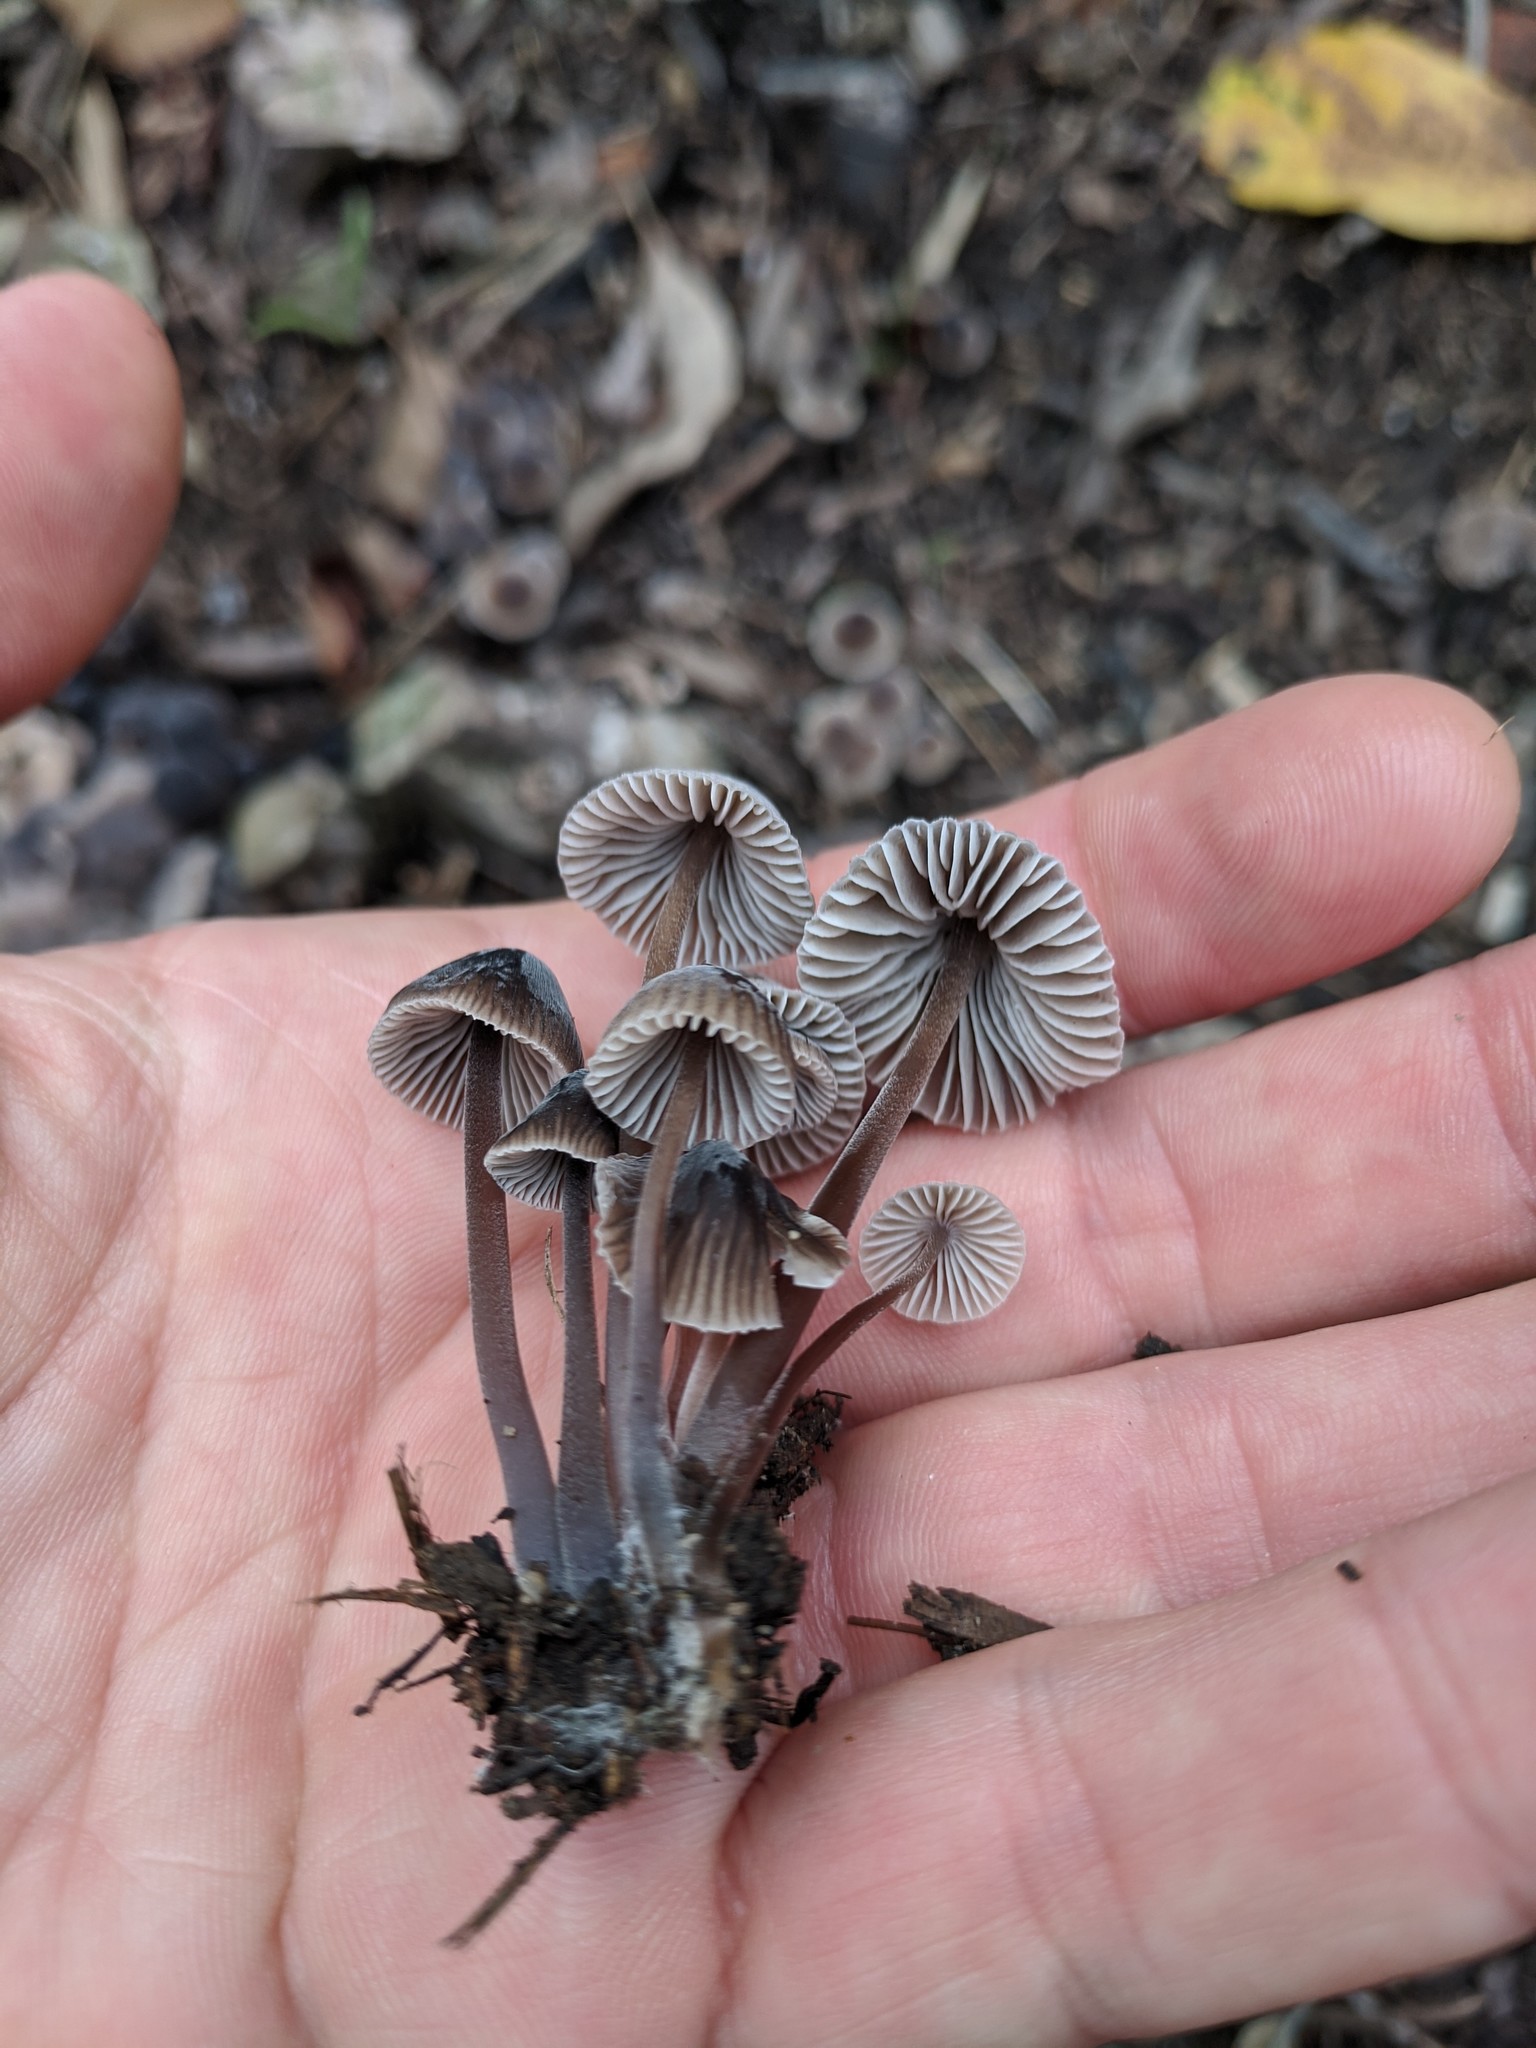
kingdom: Fungi
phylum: Basidiomycota
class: Agaricomycetes
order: Agaricales
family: Mycenaceae
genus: Mycena
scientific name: Mycena leptocephala
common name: Nitrous bonnet
